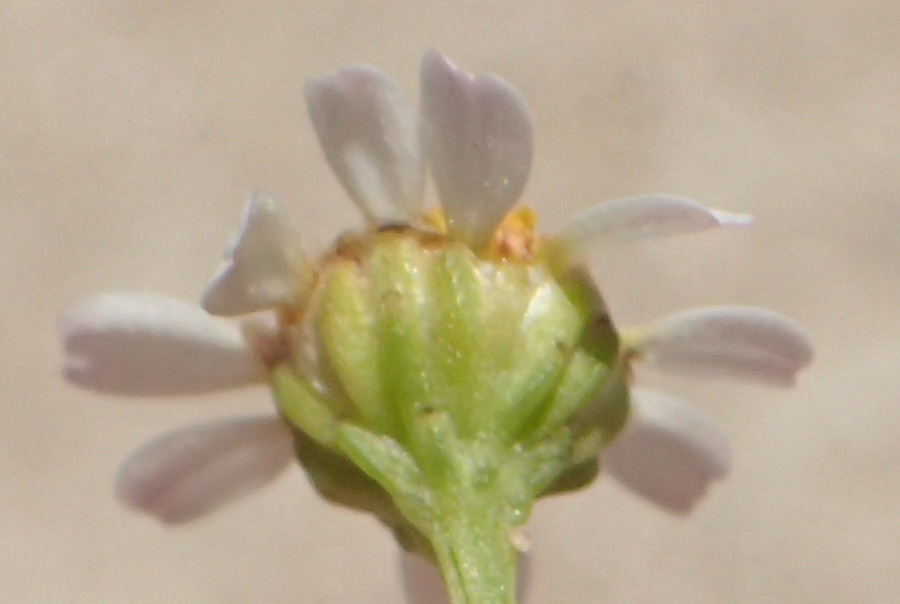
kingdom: Plantae
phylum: Tracheophyta
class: Magnoliopsida
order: Asterales
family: Asteraceae
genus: Cymbopappus
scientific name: Cymbopappus adenosolen
